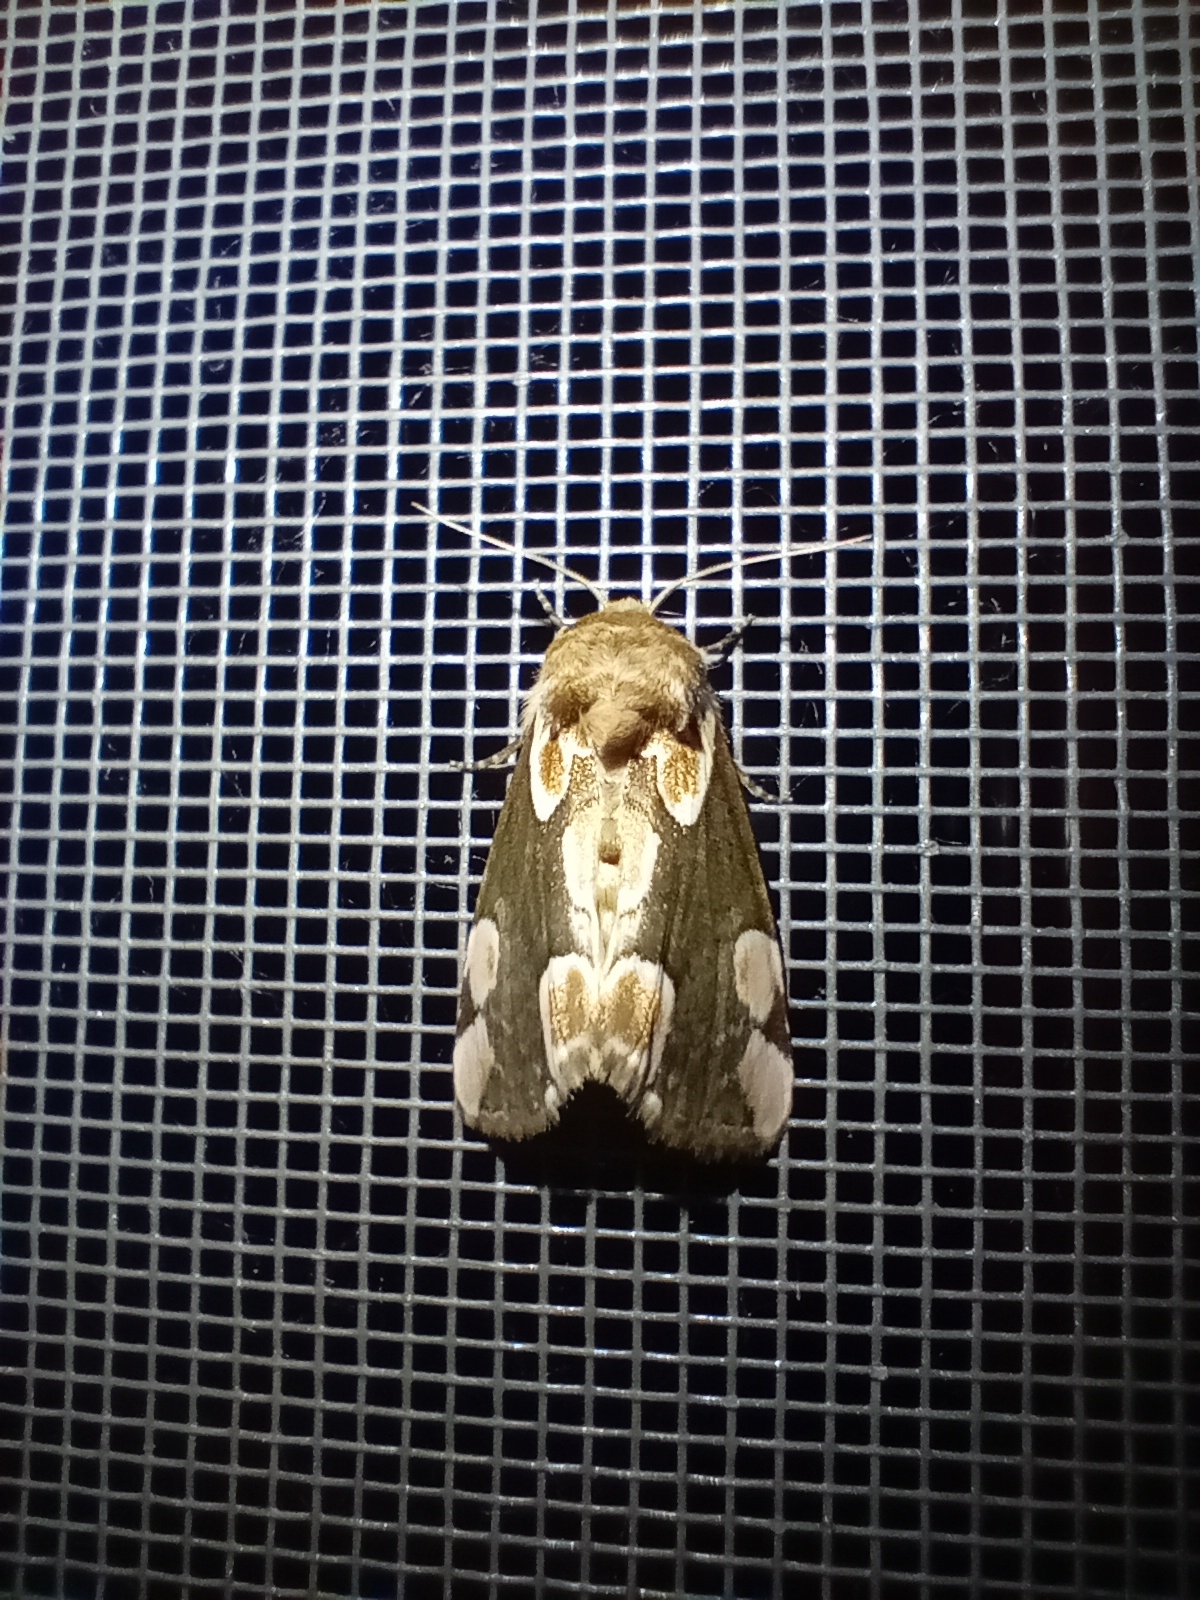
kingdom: Animalia
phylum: Arthropoda
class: Insecta
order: Lepidoptera
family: Drepanidae
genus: Thyatira
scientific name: Thyatira batis
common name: Peach blossom
